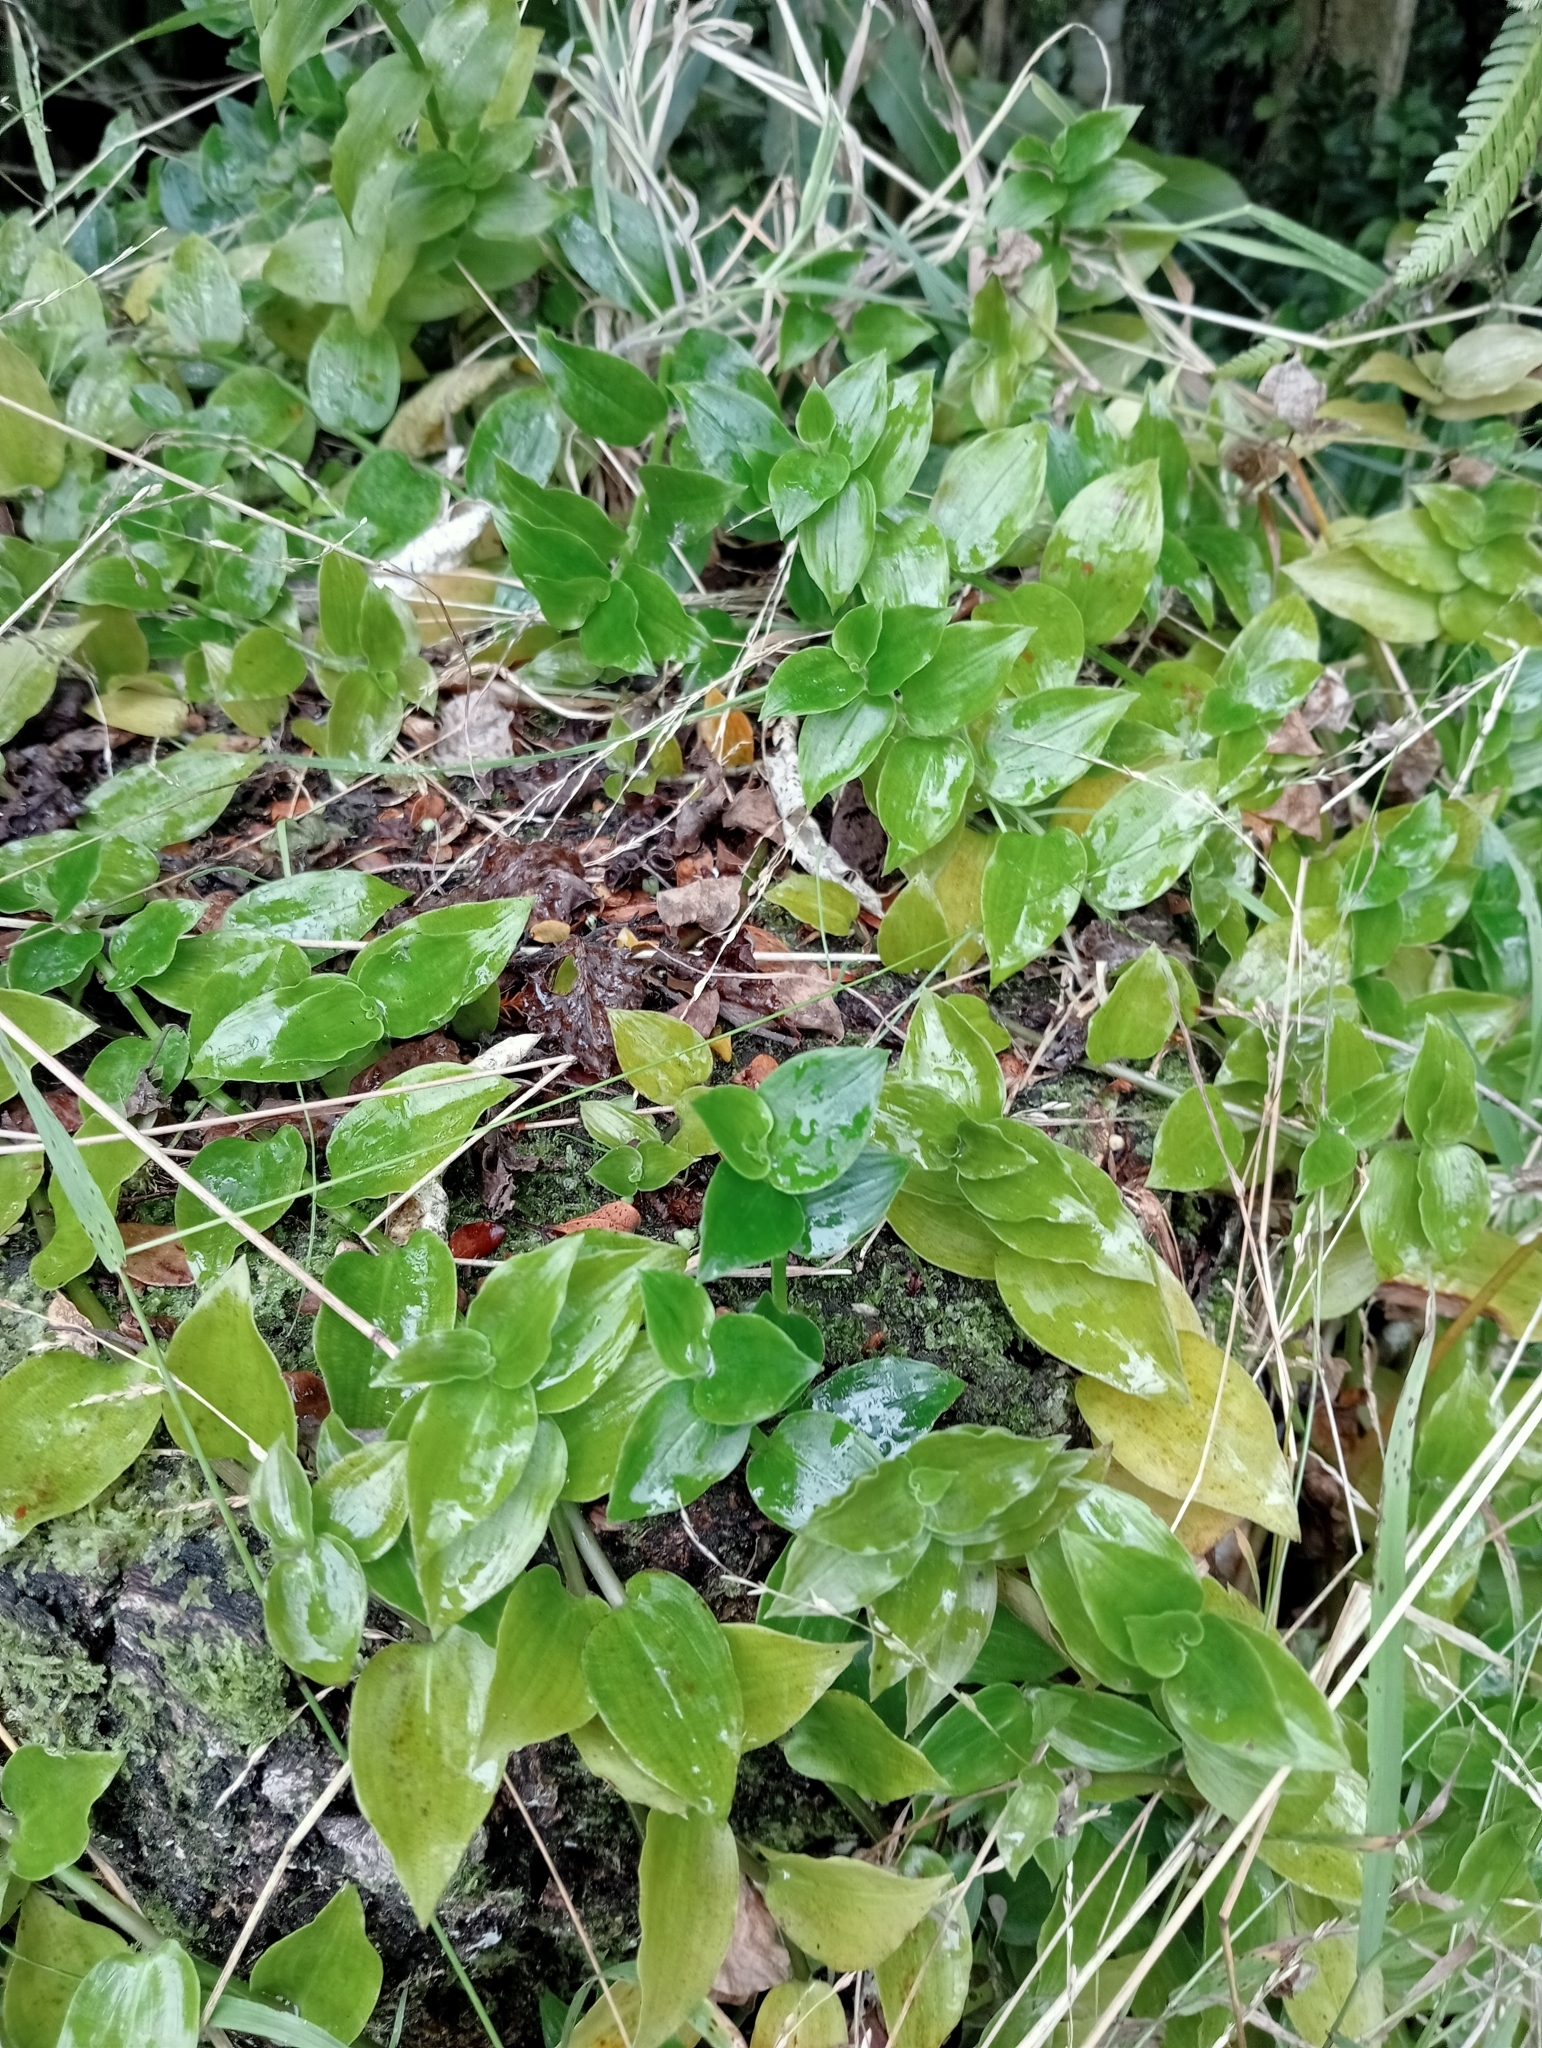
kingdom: Plantae
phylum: Tracheophyta
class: Liliopsida
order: Commelinales
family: Commelinaceae
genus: Tradescantia
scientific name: Tradescantia fluminensis
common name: Wandering-jew
